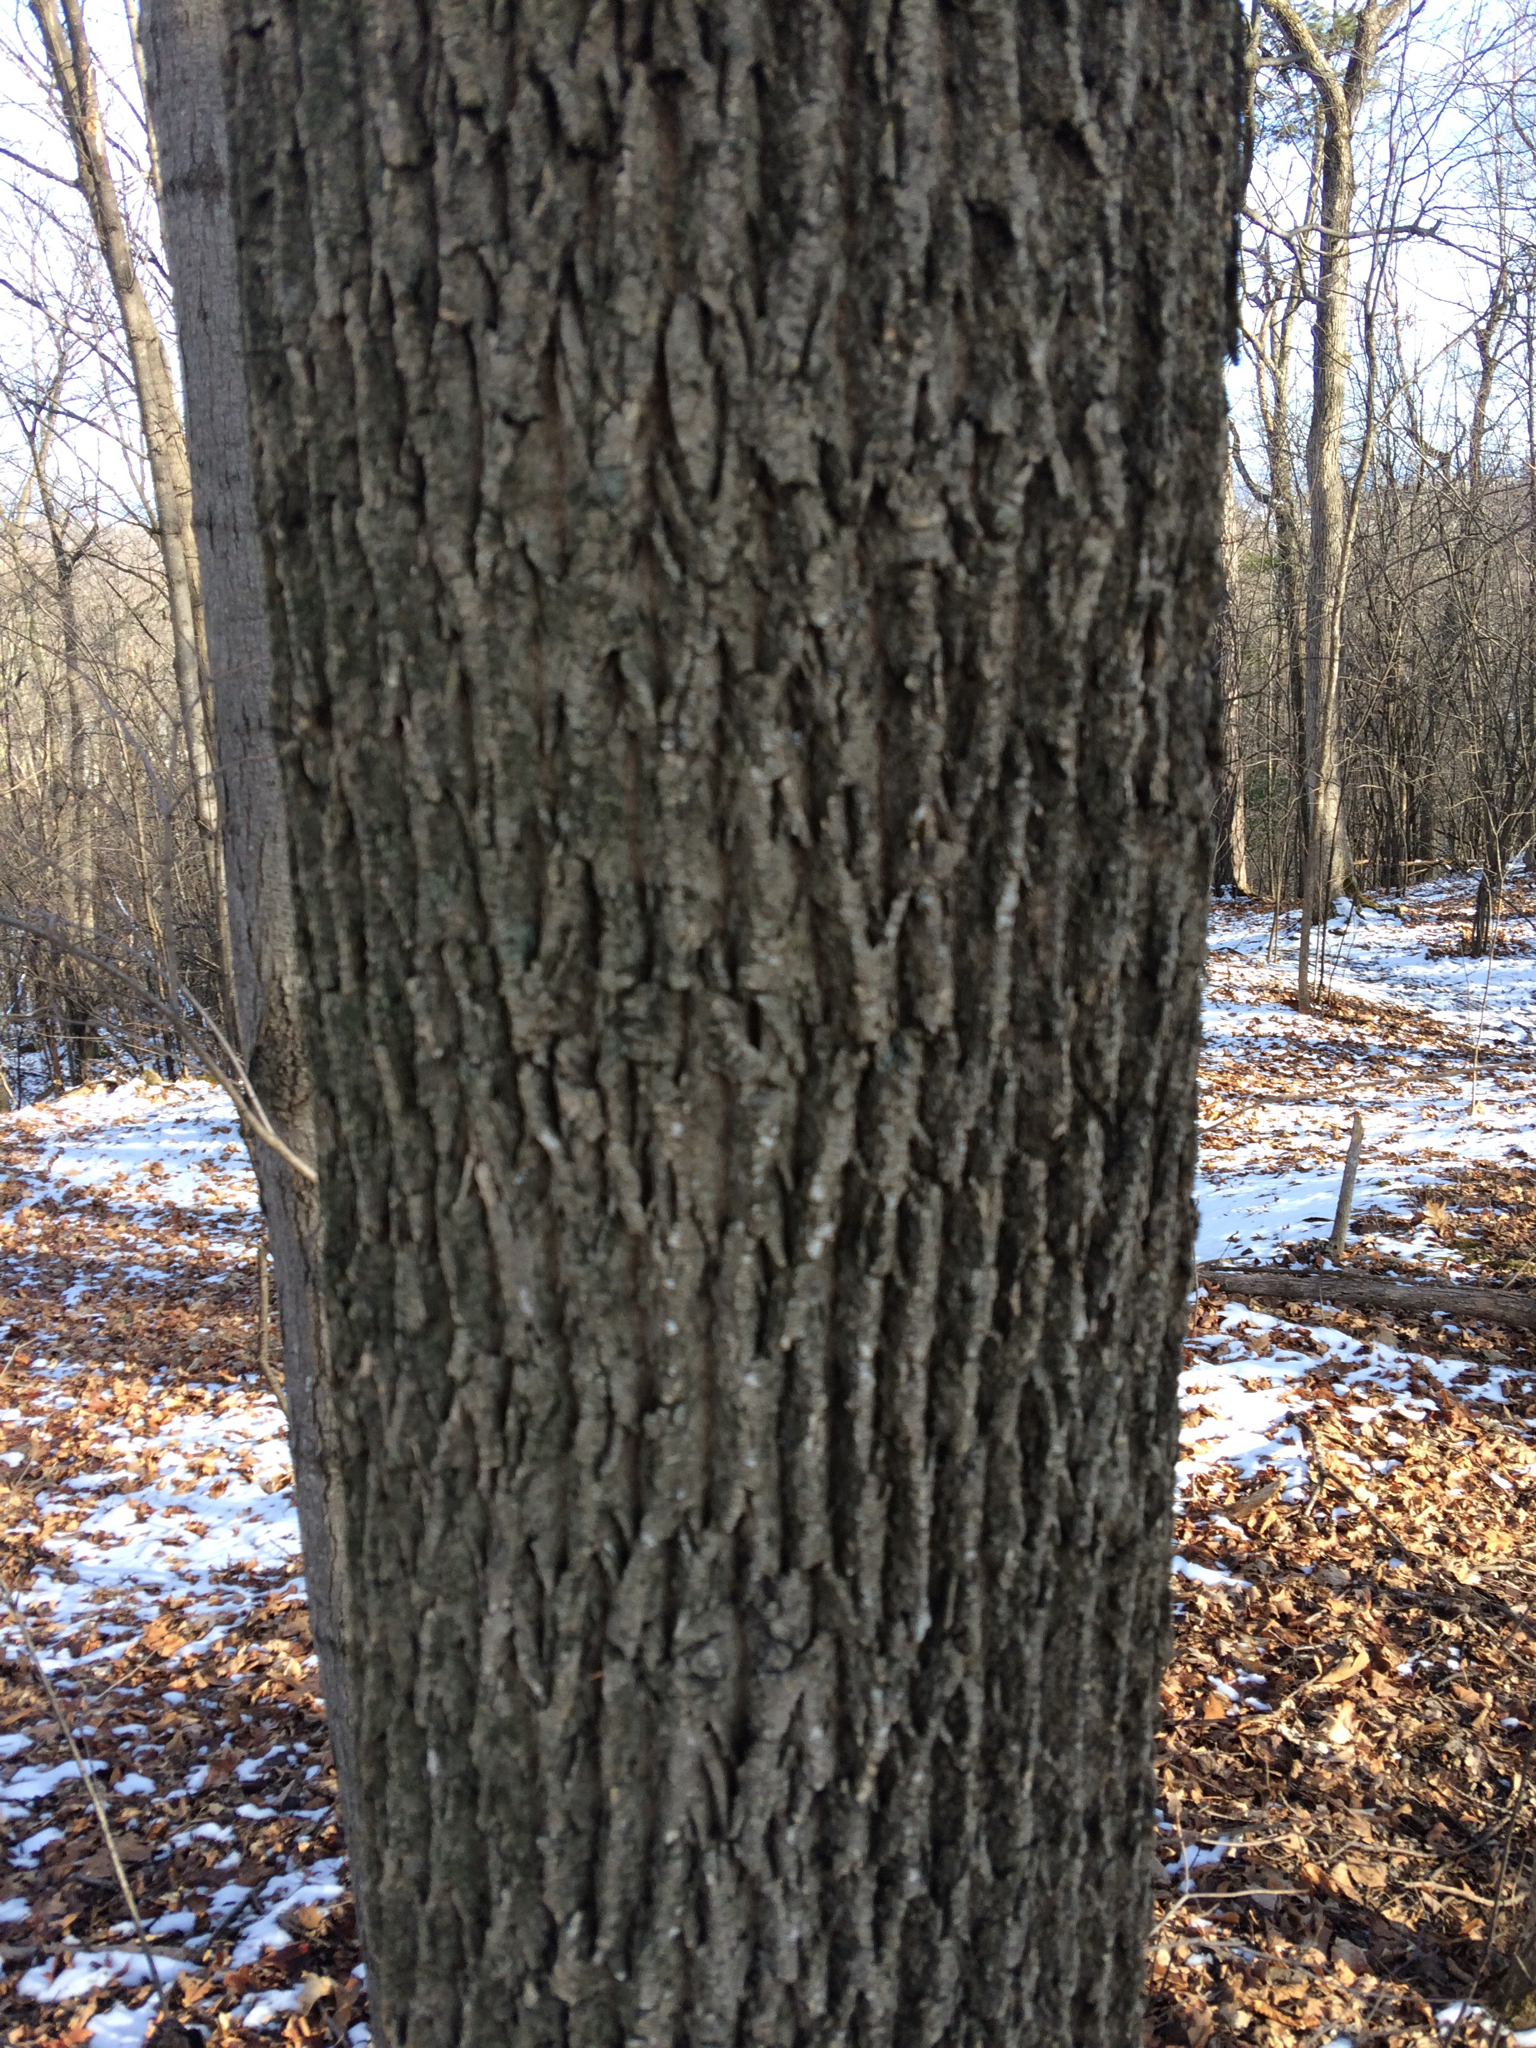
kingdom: Plantae
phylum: Tracheophyta
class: Magnoliopsida
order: Lamiales
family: Oleaceae
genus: Fraxinus
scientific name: Fraxinus americana
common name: White ash
